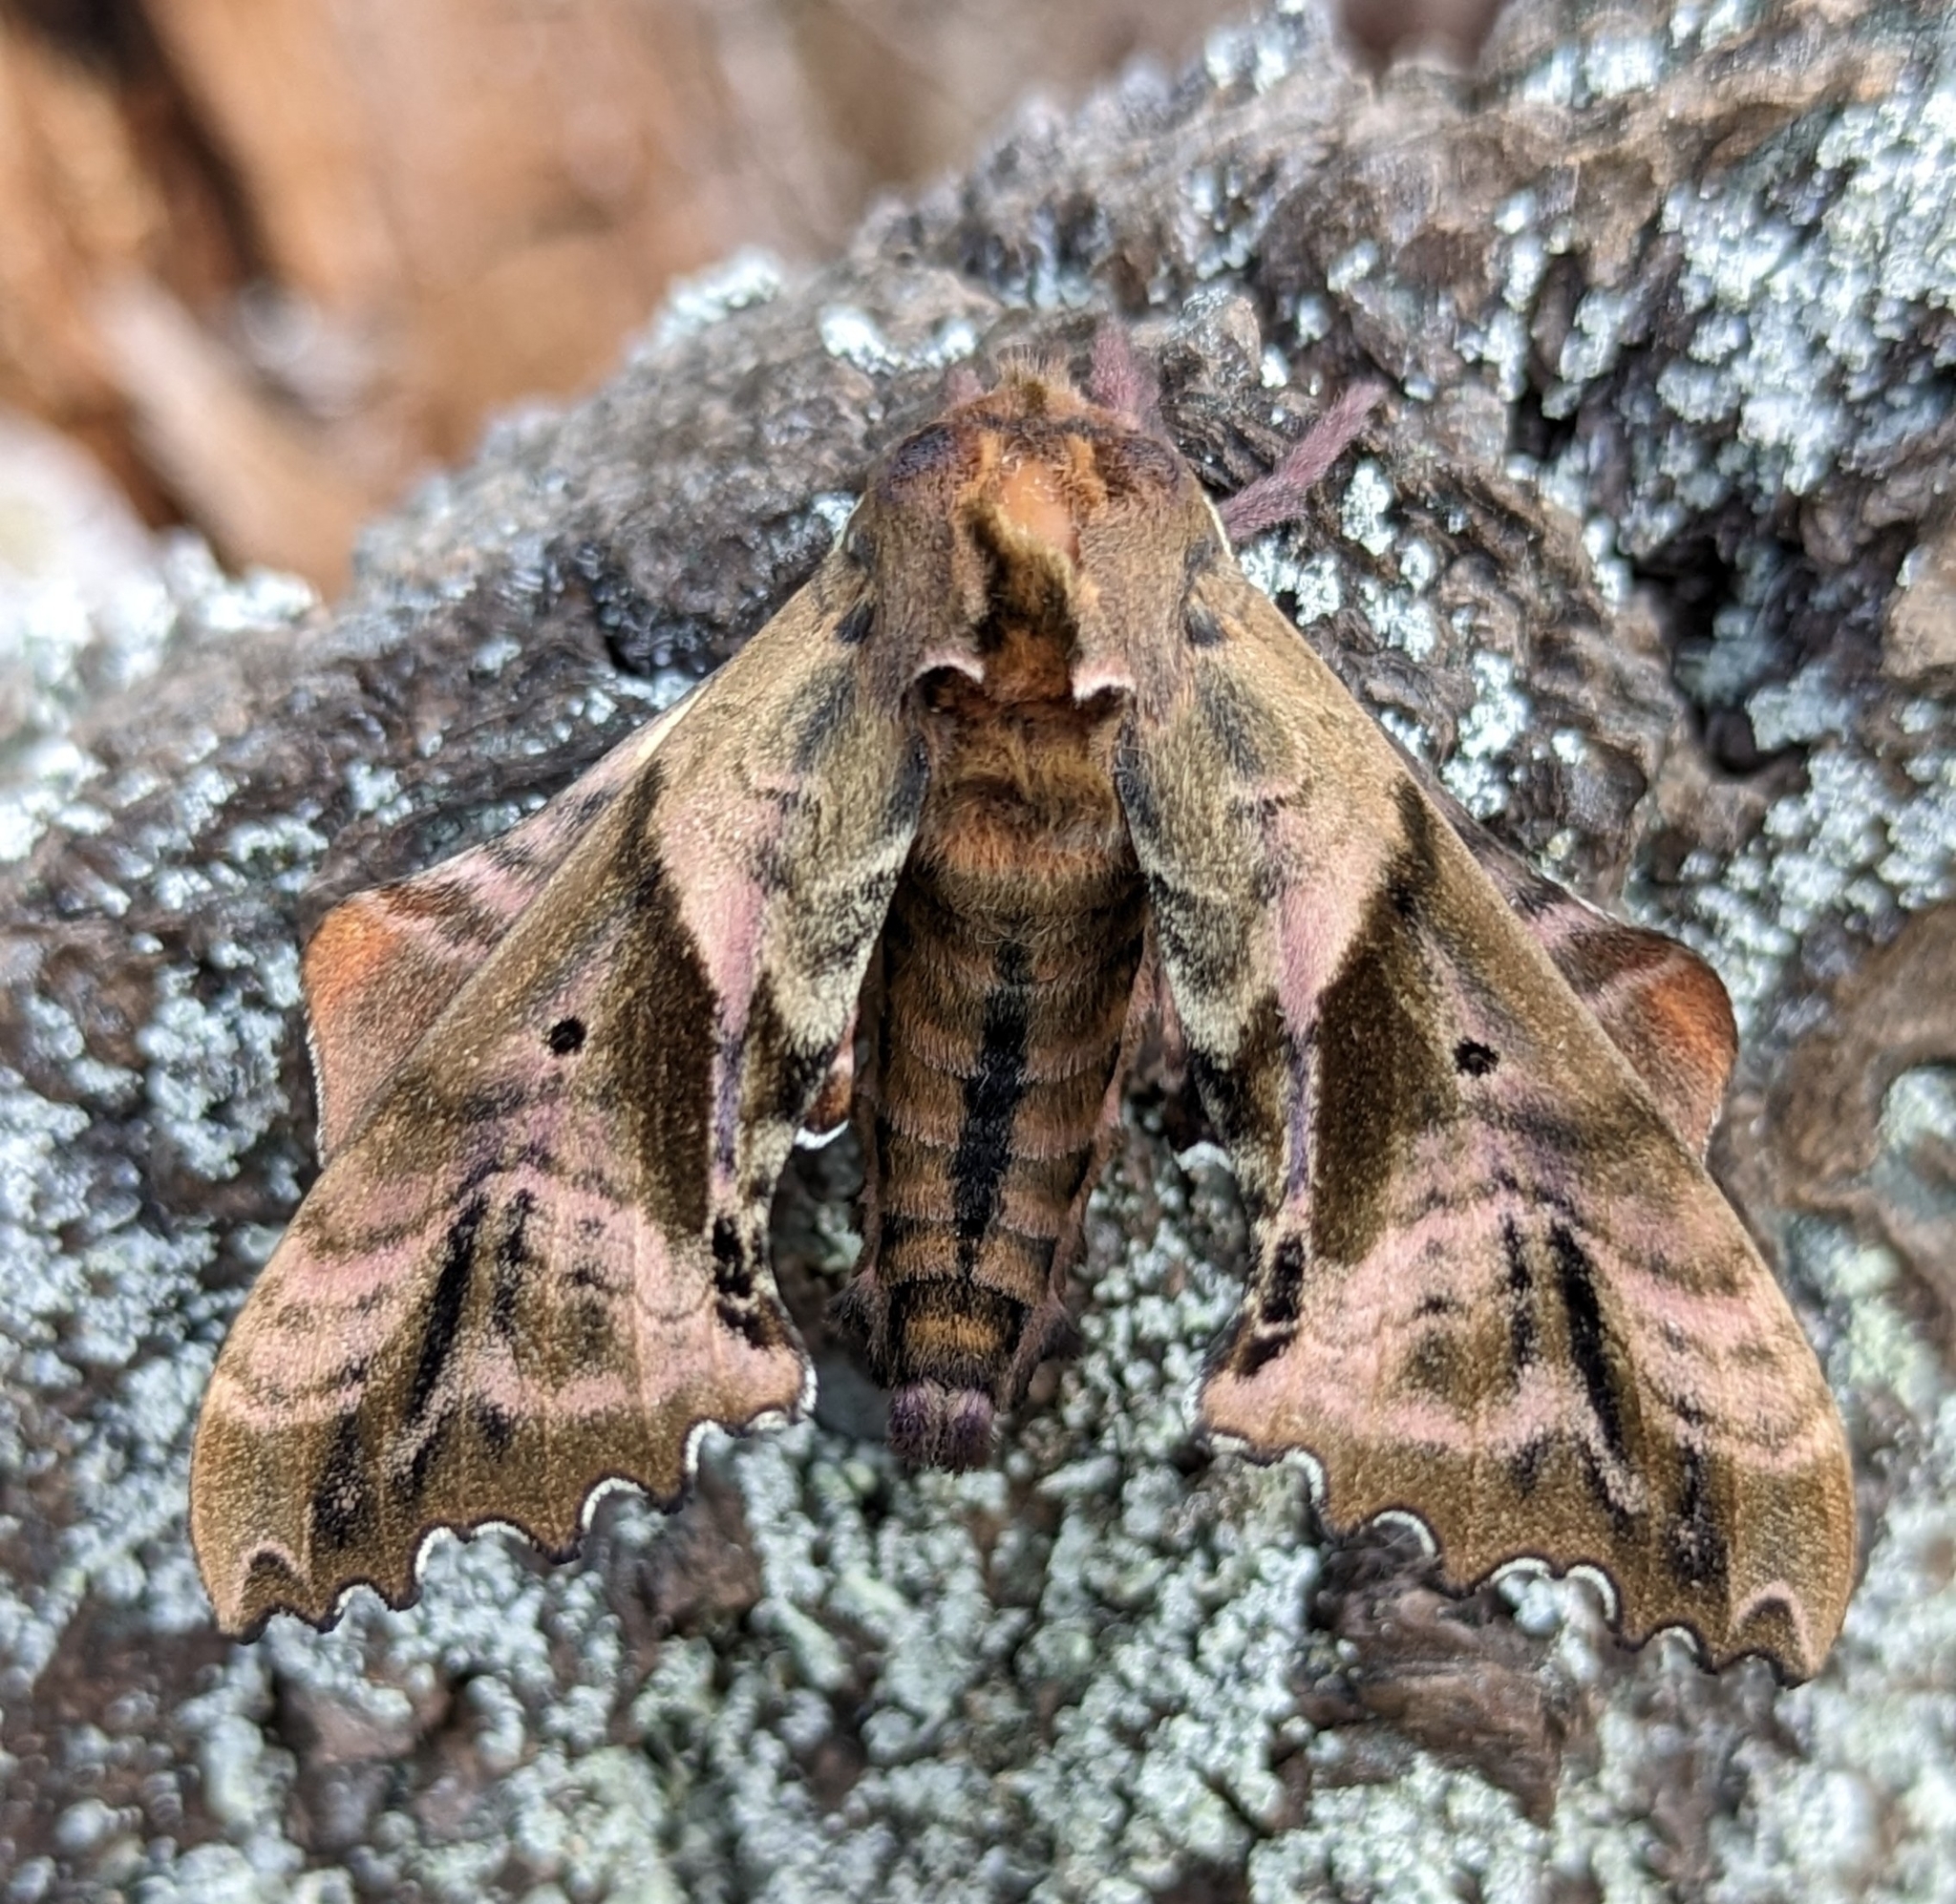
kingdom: Animalia
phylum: Arthropoda
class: Insecta
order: Lepidoptera
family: Sphingidae
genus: Paonias
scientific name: Paonias excaecata
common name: Blind-eyed sphinx
